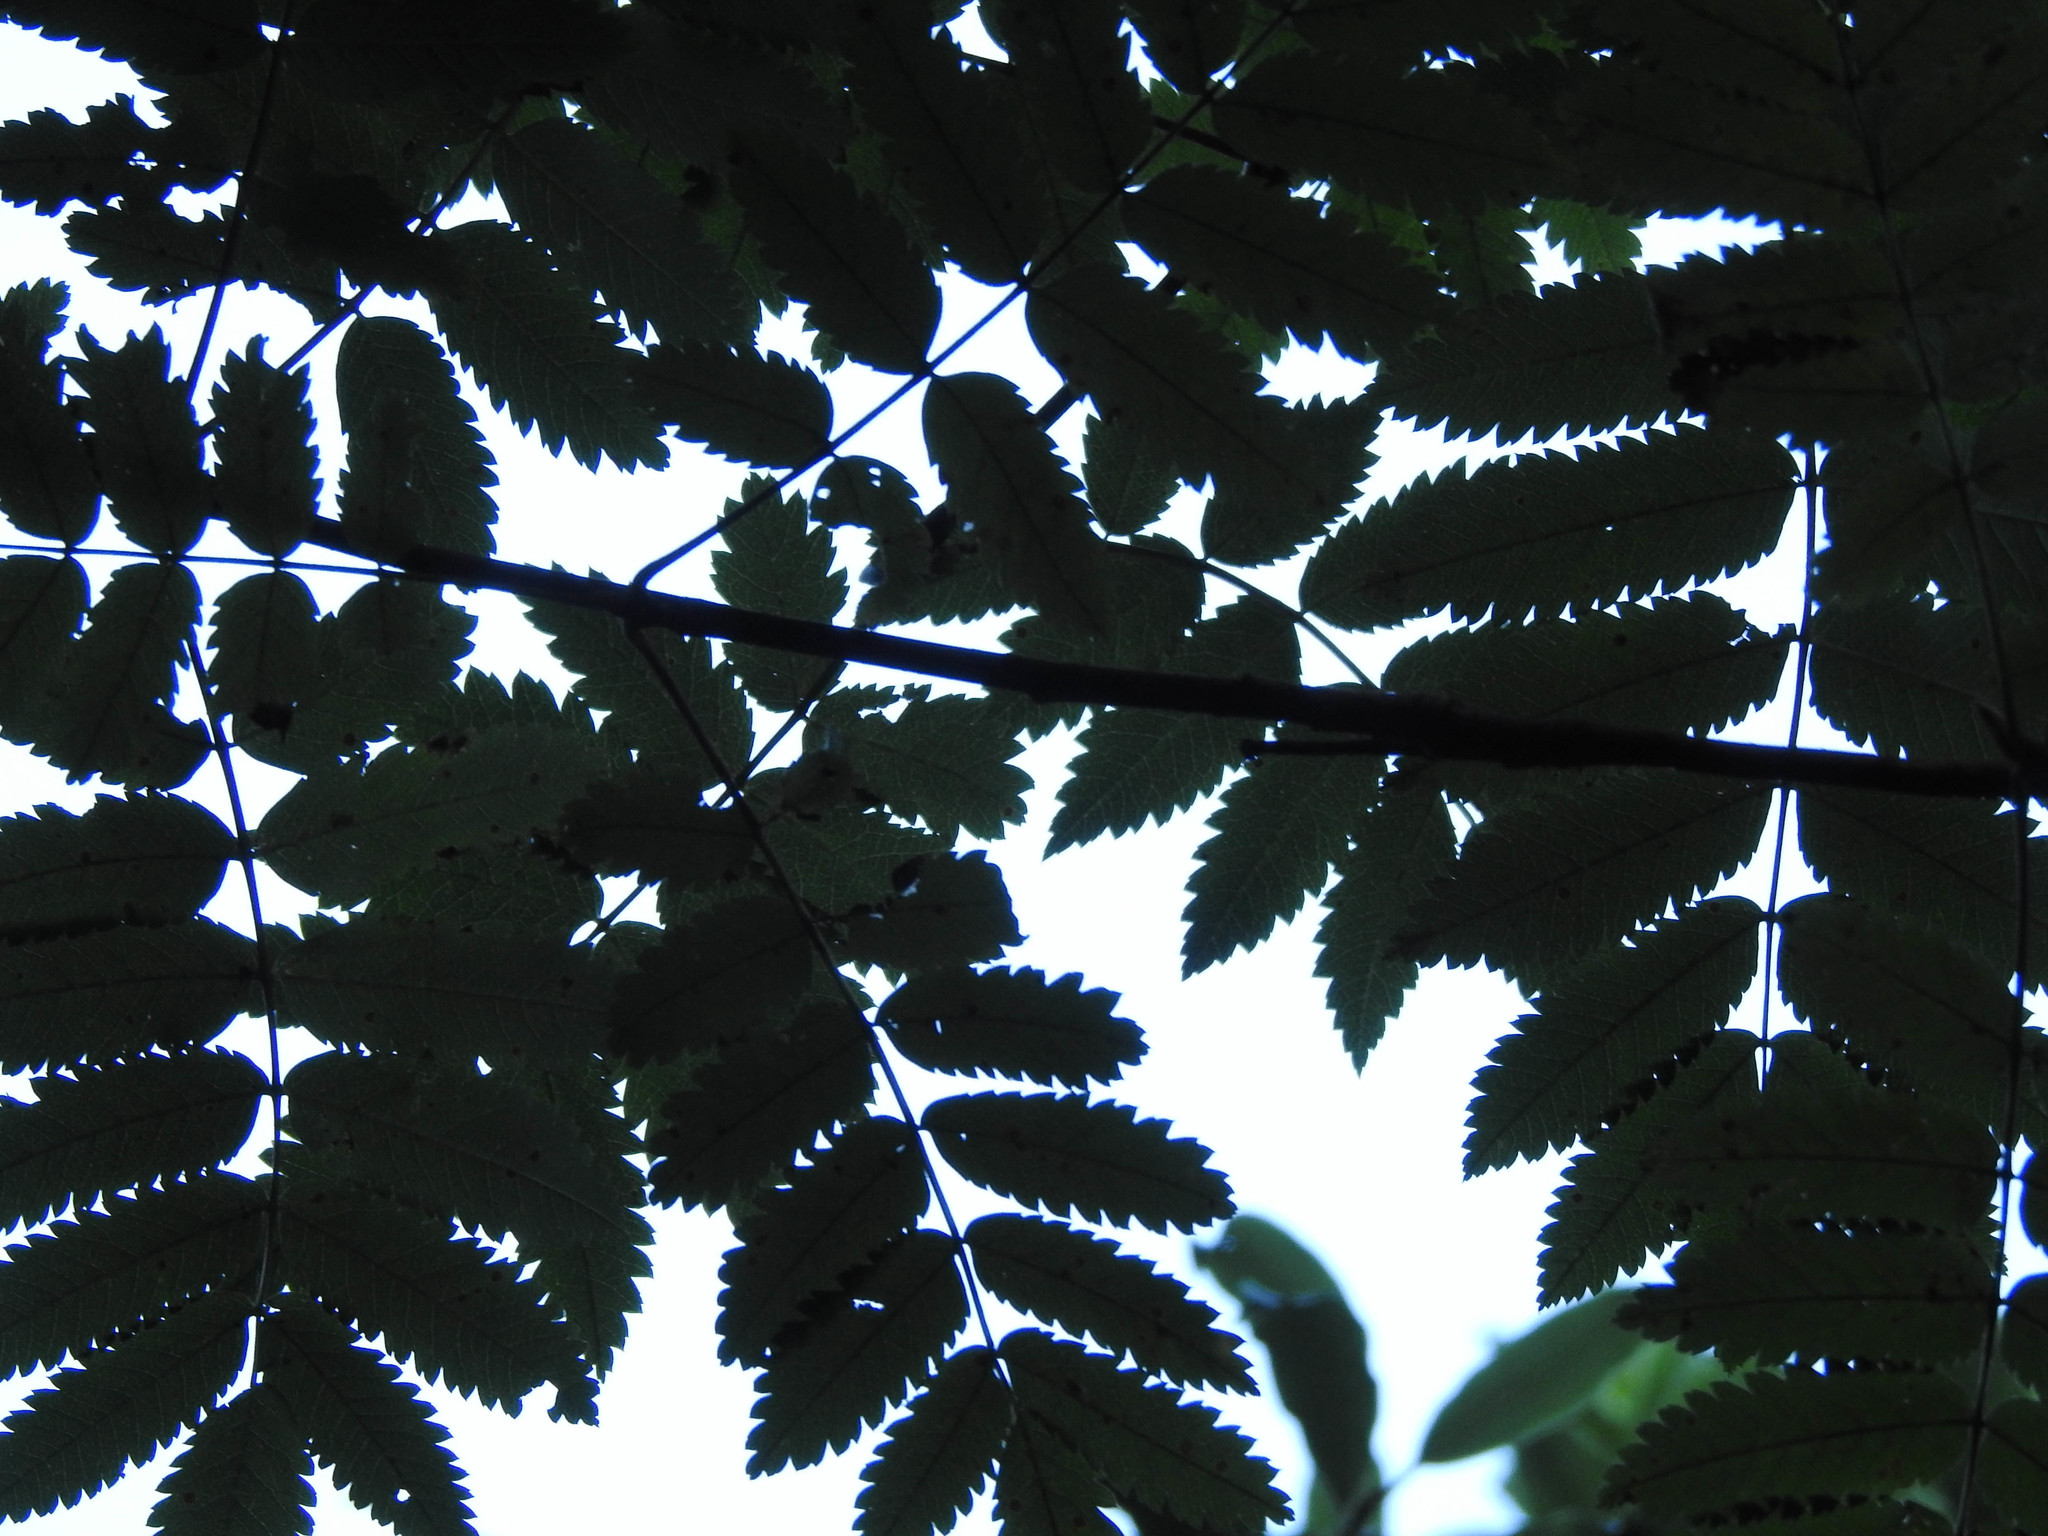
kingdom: Plantae
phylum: Tracheophyta
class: Magnoliopsida
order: Rosales
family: Rosaceae
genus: Sorbus
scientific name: Sorbus aucuparia
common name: Rowan
